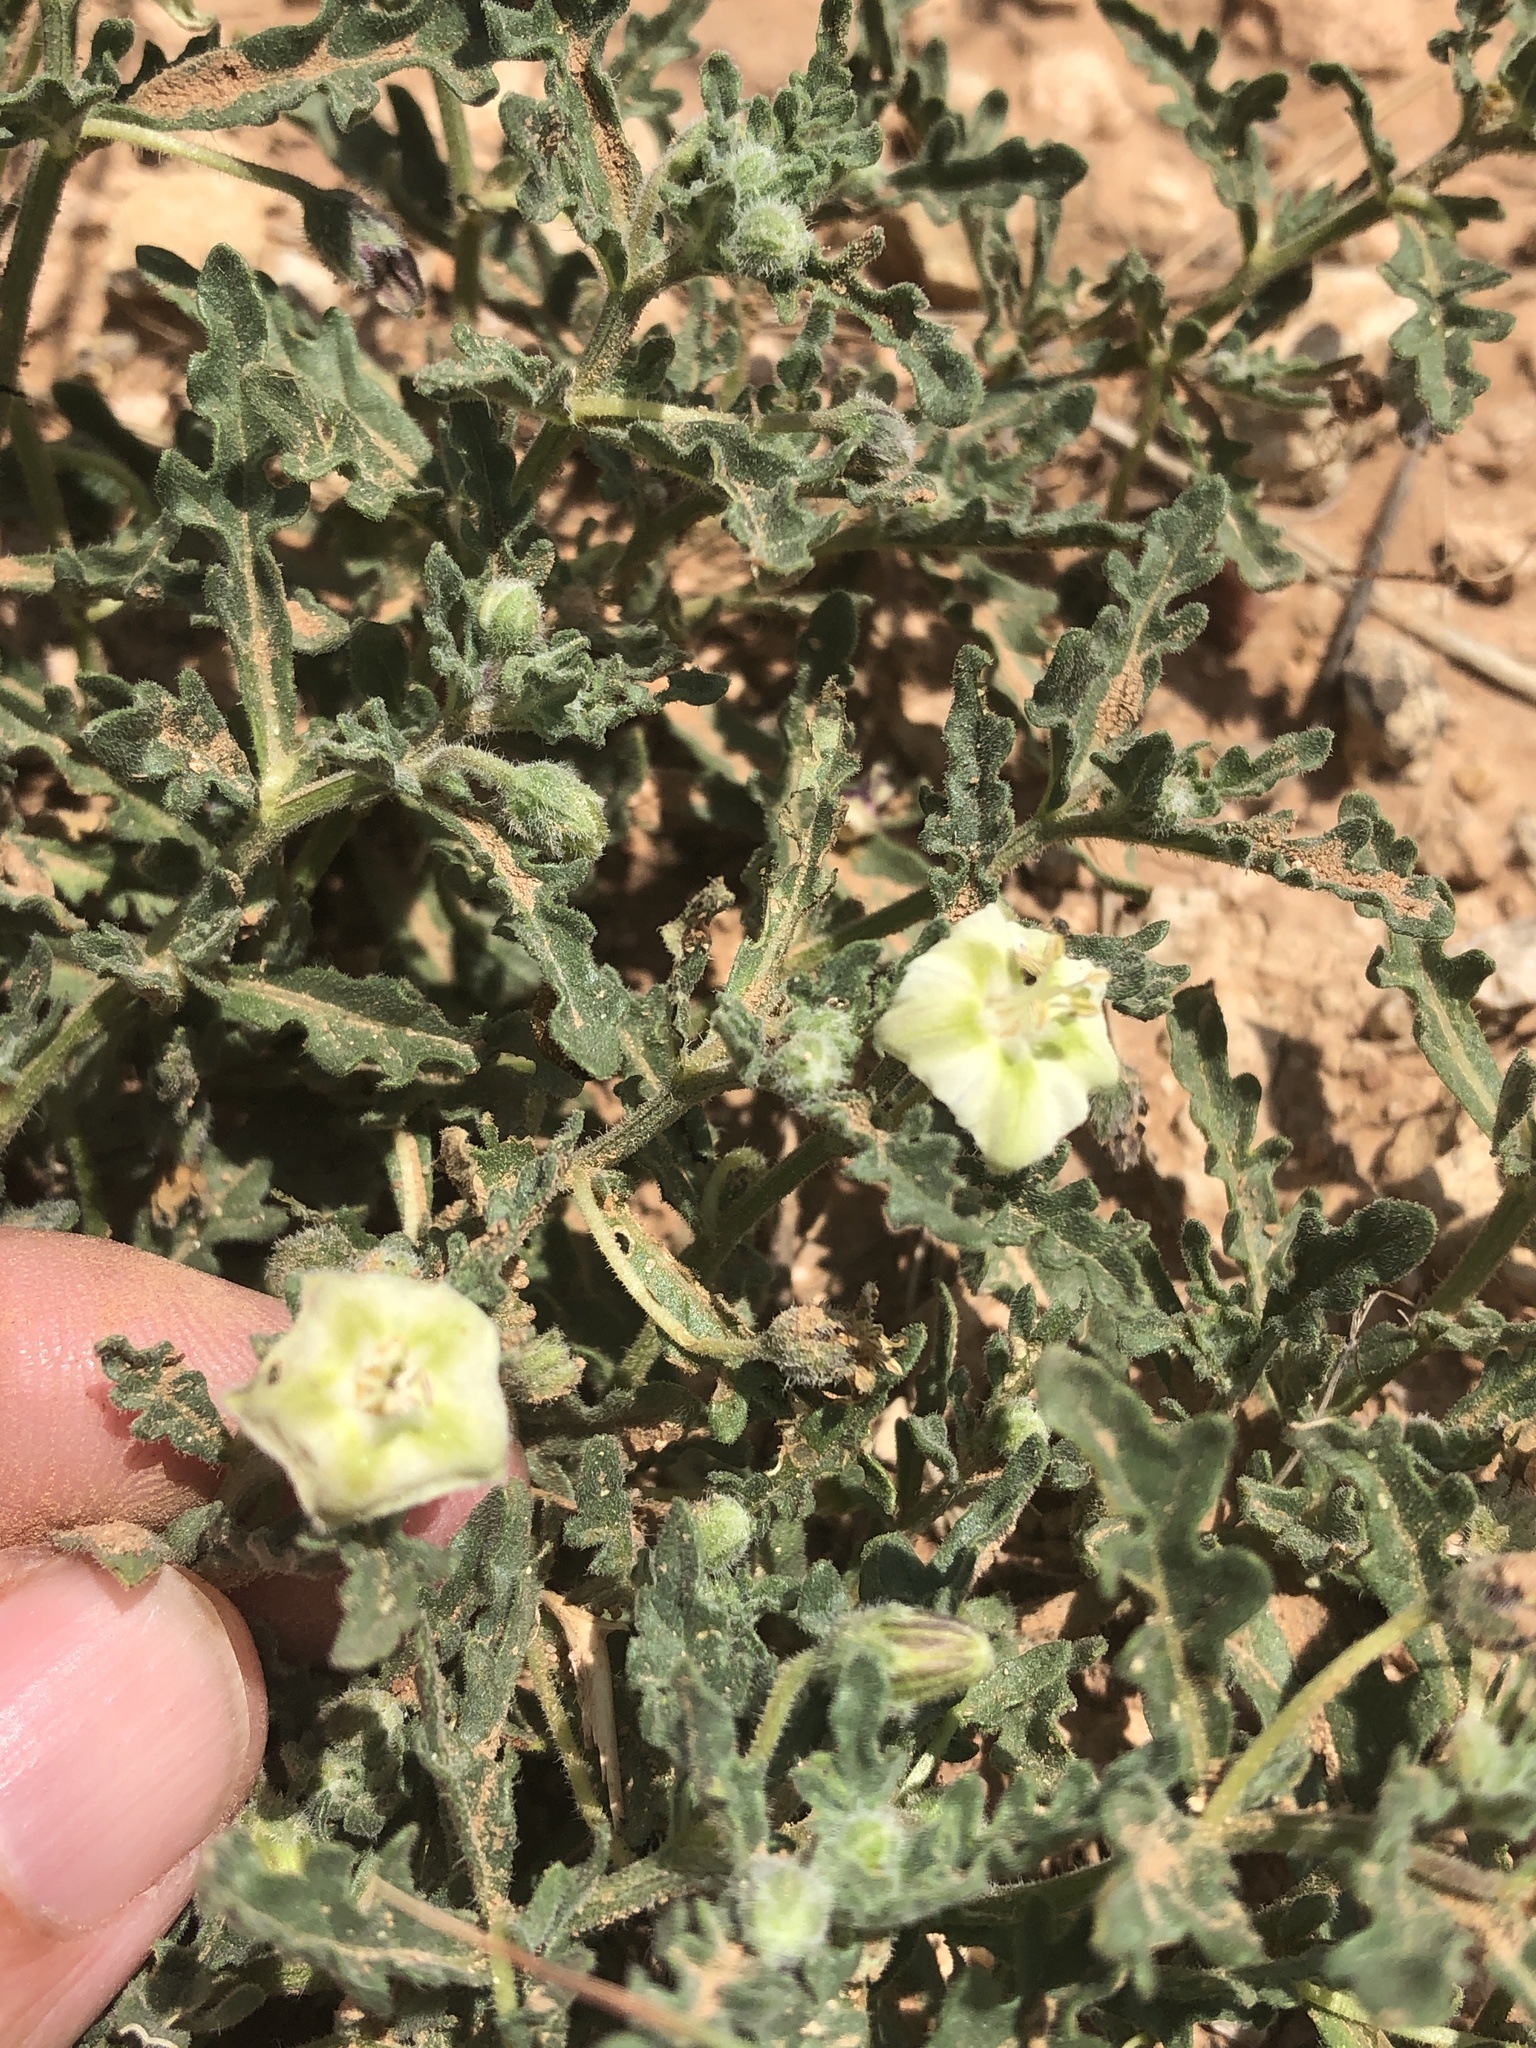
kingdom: Plantae
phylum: Tracheophyta
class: Magnoliopsida
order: Solanales
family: Solanaceae
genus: Chamaesaracha
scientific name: Chamaesaracha coniodes
